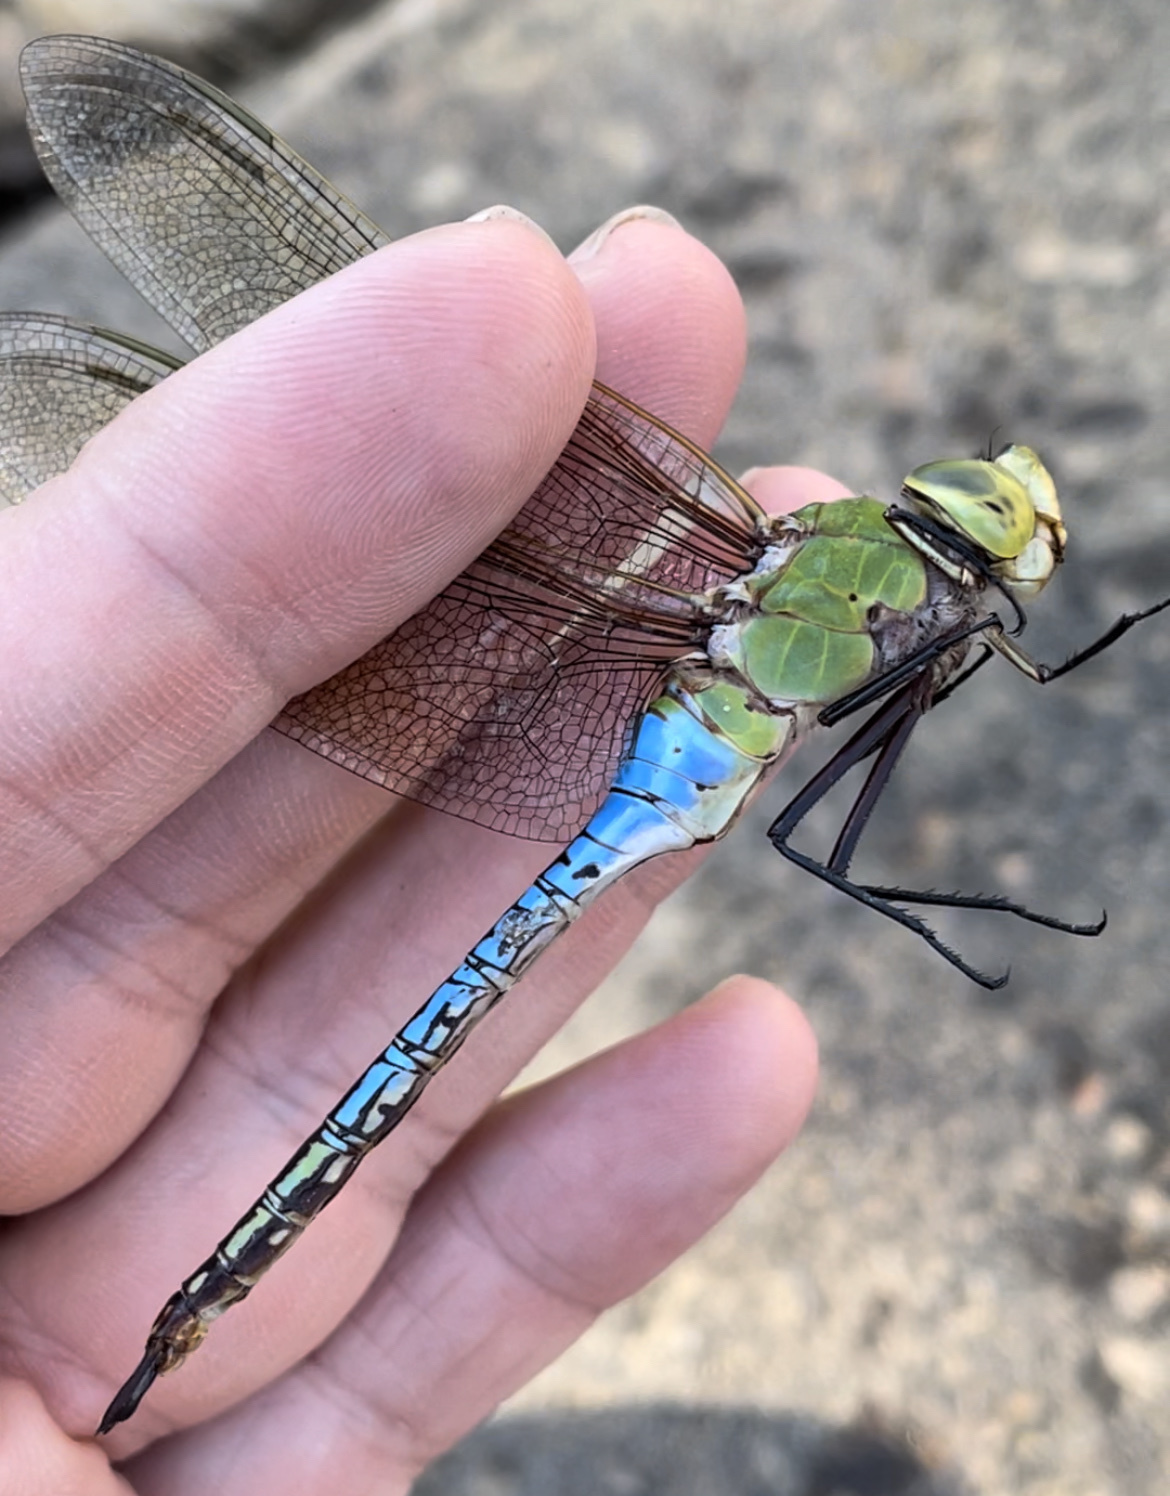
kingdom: Animalia
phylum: Arthropoda
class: Insecta
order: Odonata
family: Aeshnidae
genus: Anax
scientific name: Anax junius
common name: Common green darner
